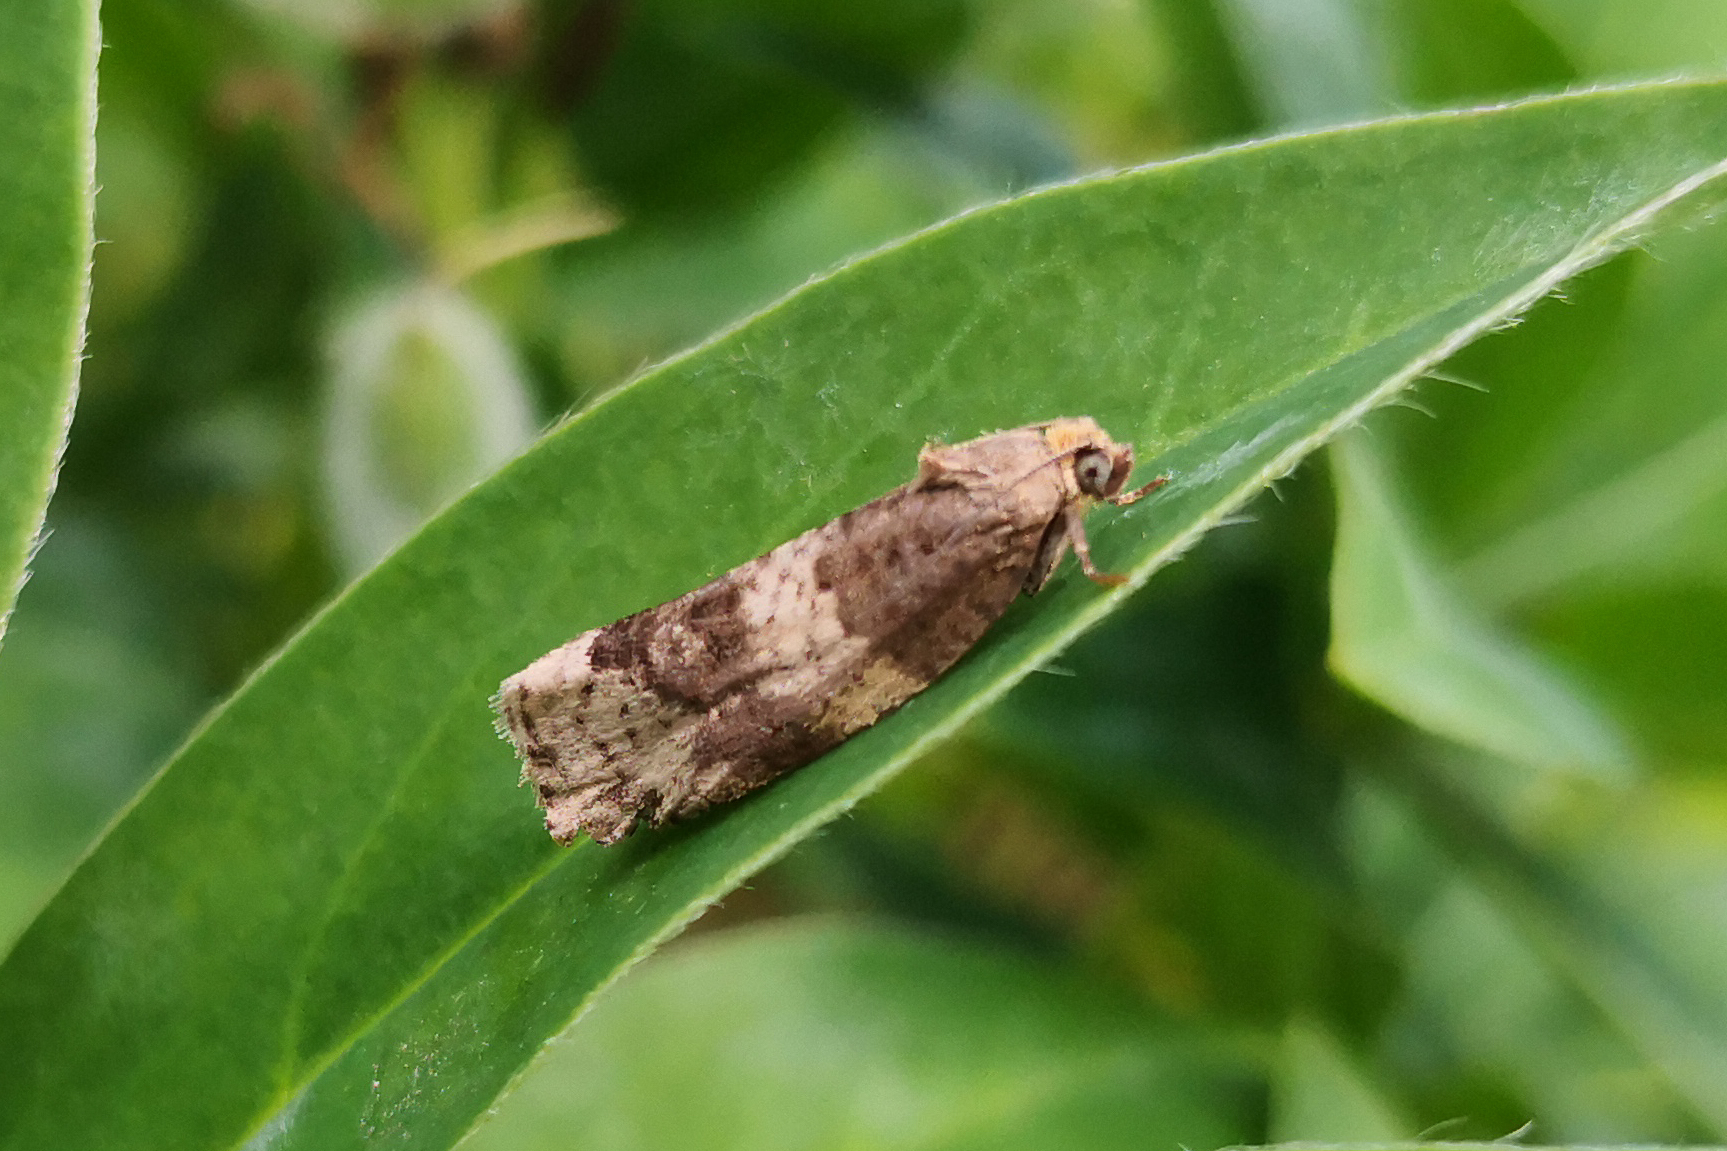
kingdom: Animalia
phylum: Arthropoda
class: Insecta
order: Lepidoptera
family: Tortricidae
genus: Pseudosciaphila
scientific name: Pseudosciaphila branderiana
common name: Great marble
